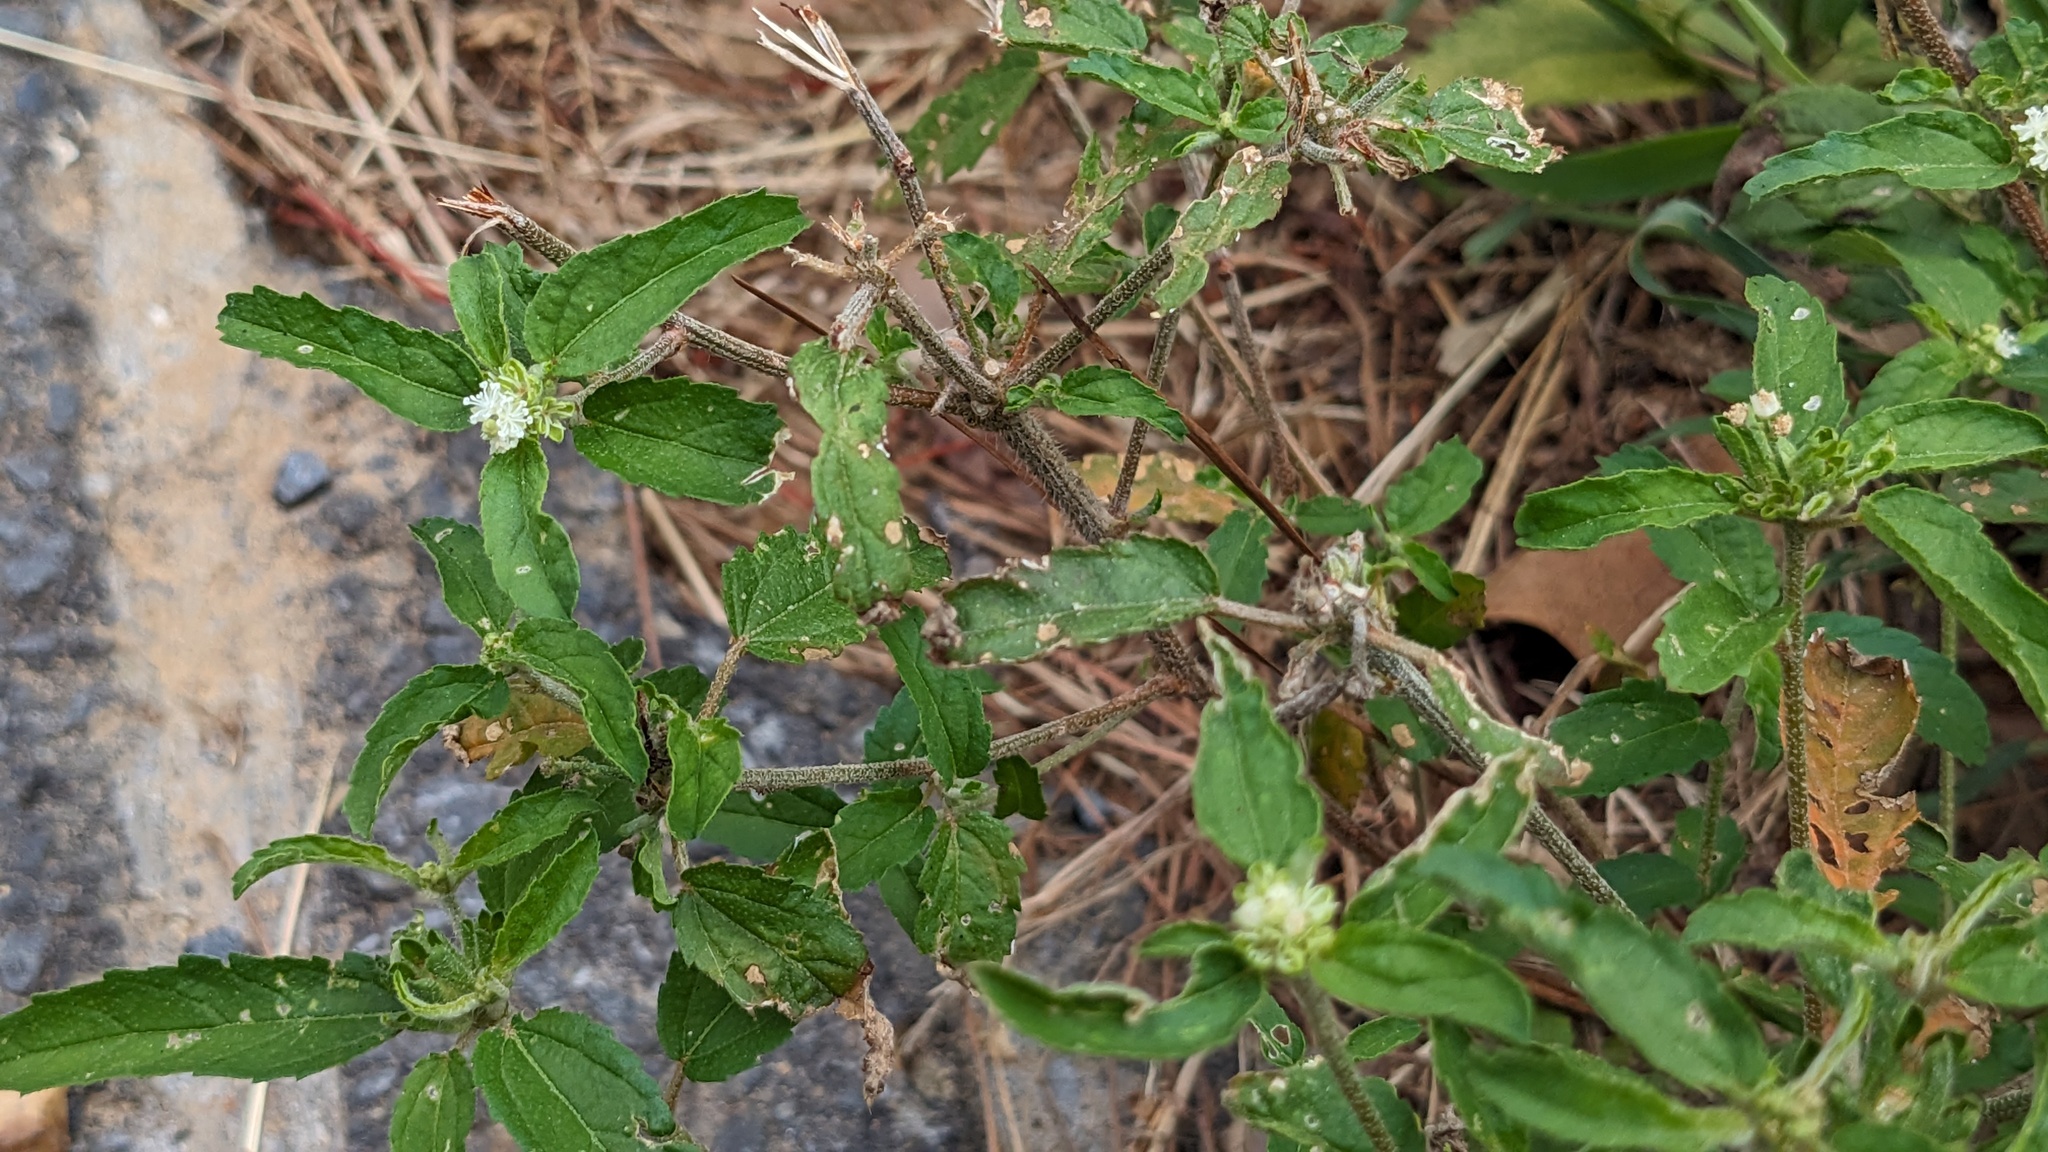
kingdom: Plantae
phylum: Tracheophyta
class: Magnoliopsida
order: Malpighiales
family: Euphorbiaceae
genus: Croton
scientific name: Croton glandulosus
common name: Tropic croton
